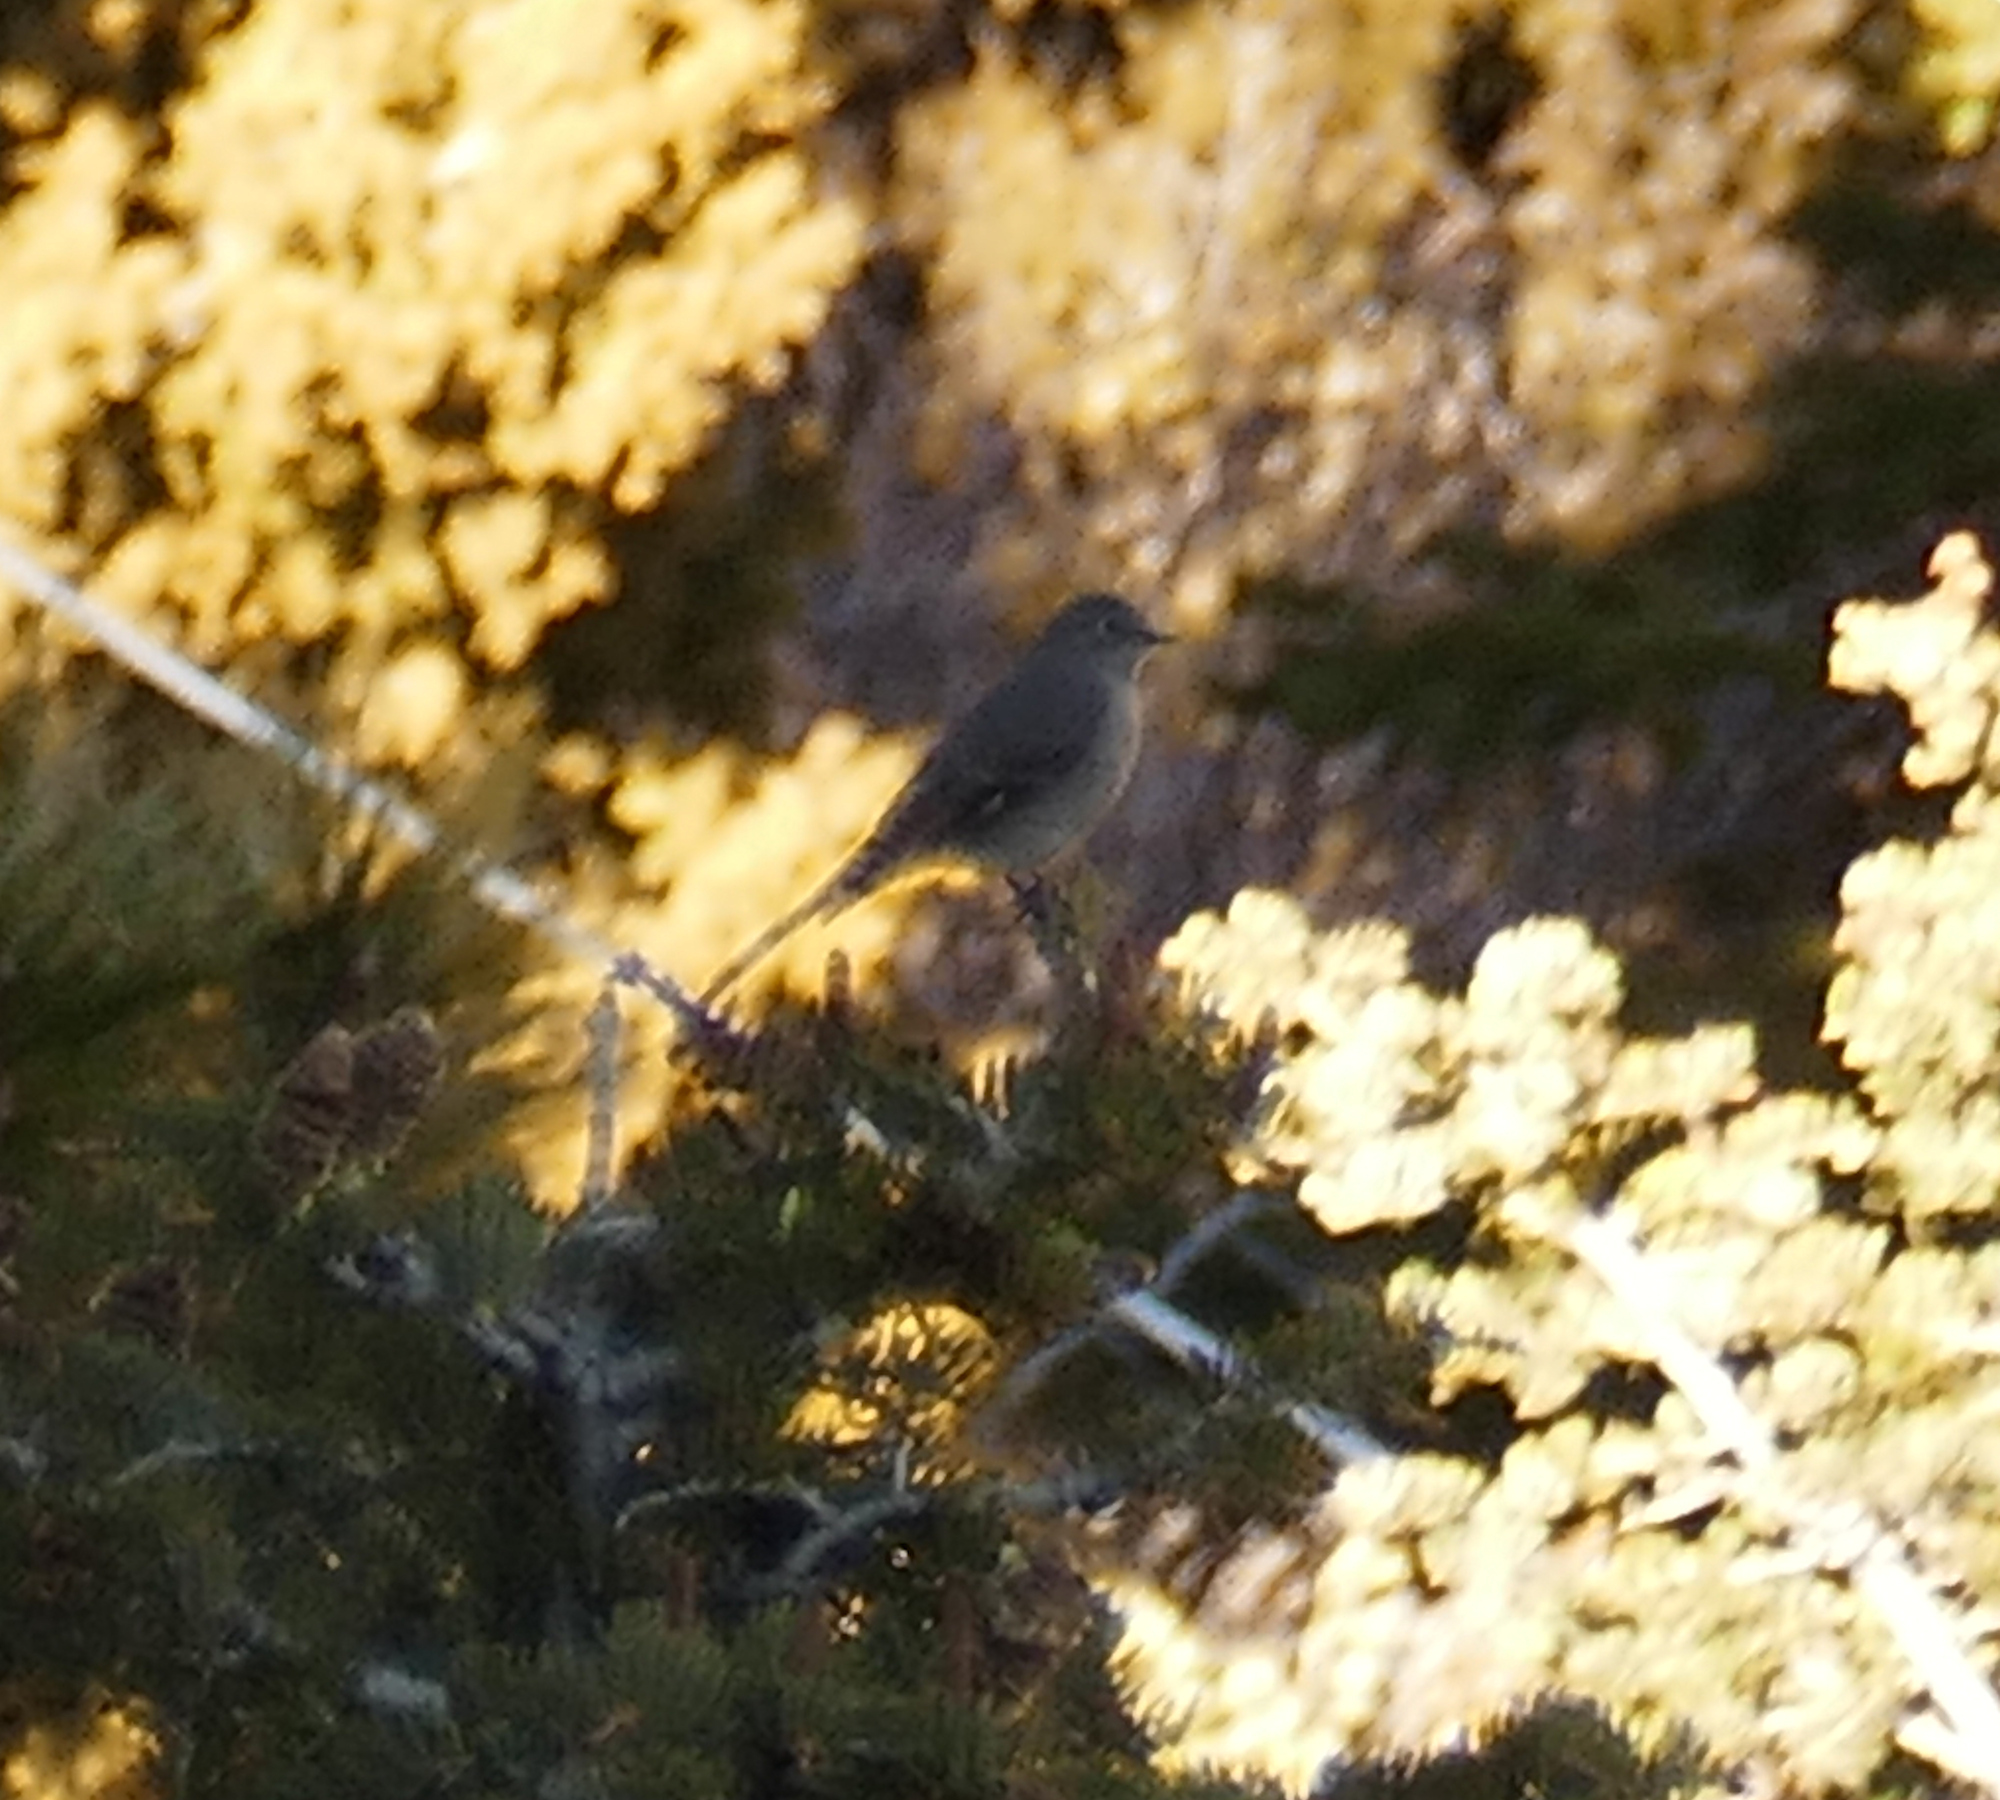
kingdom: Animalia
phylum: Chordata
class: Aves
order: Passeriformes
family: Turdidae
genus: Myadestes
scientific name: Myadestes townsendi
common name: Townsend's solitaire
